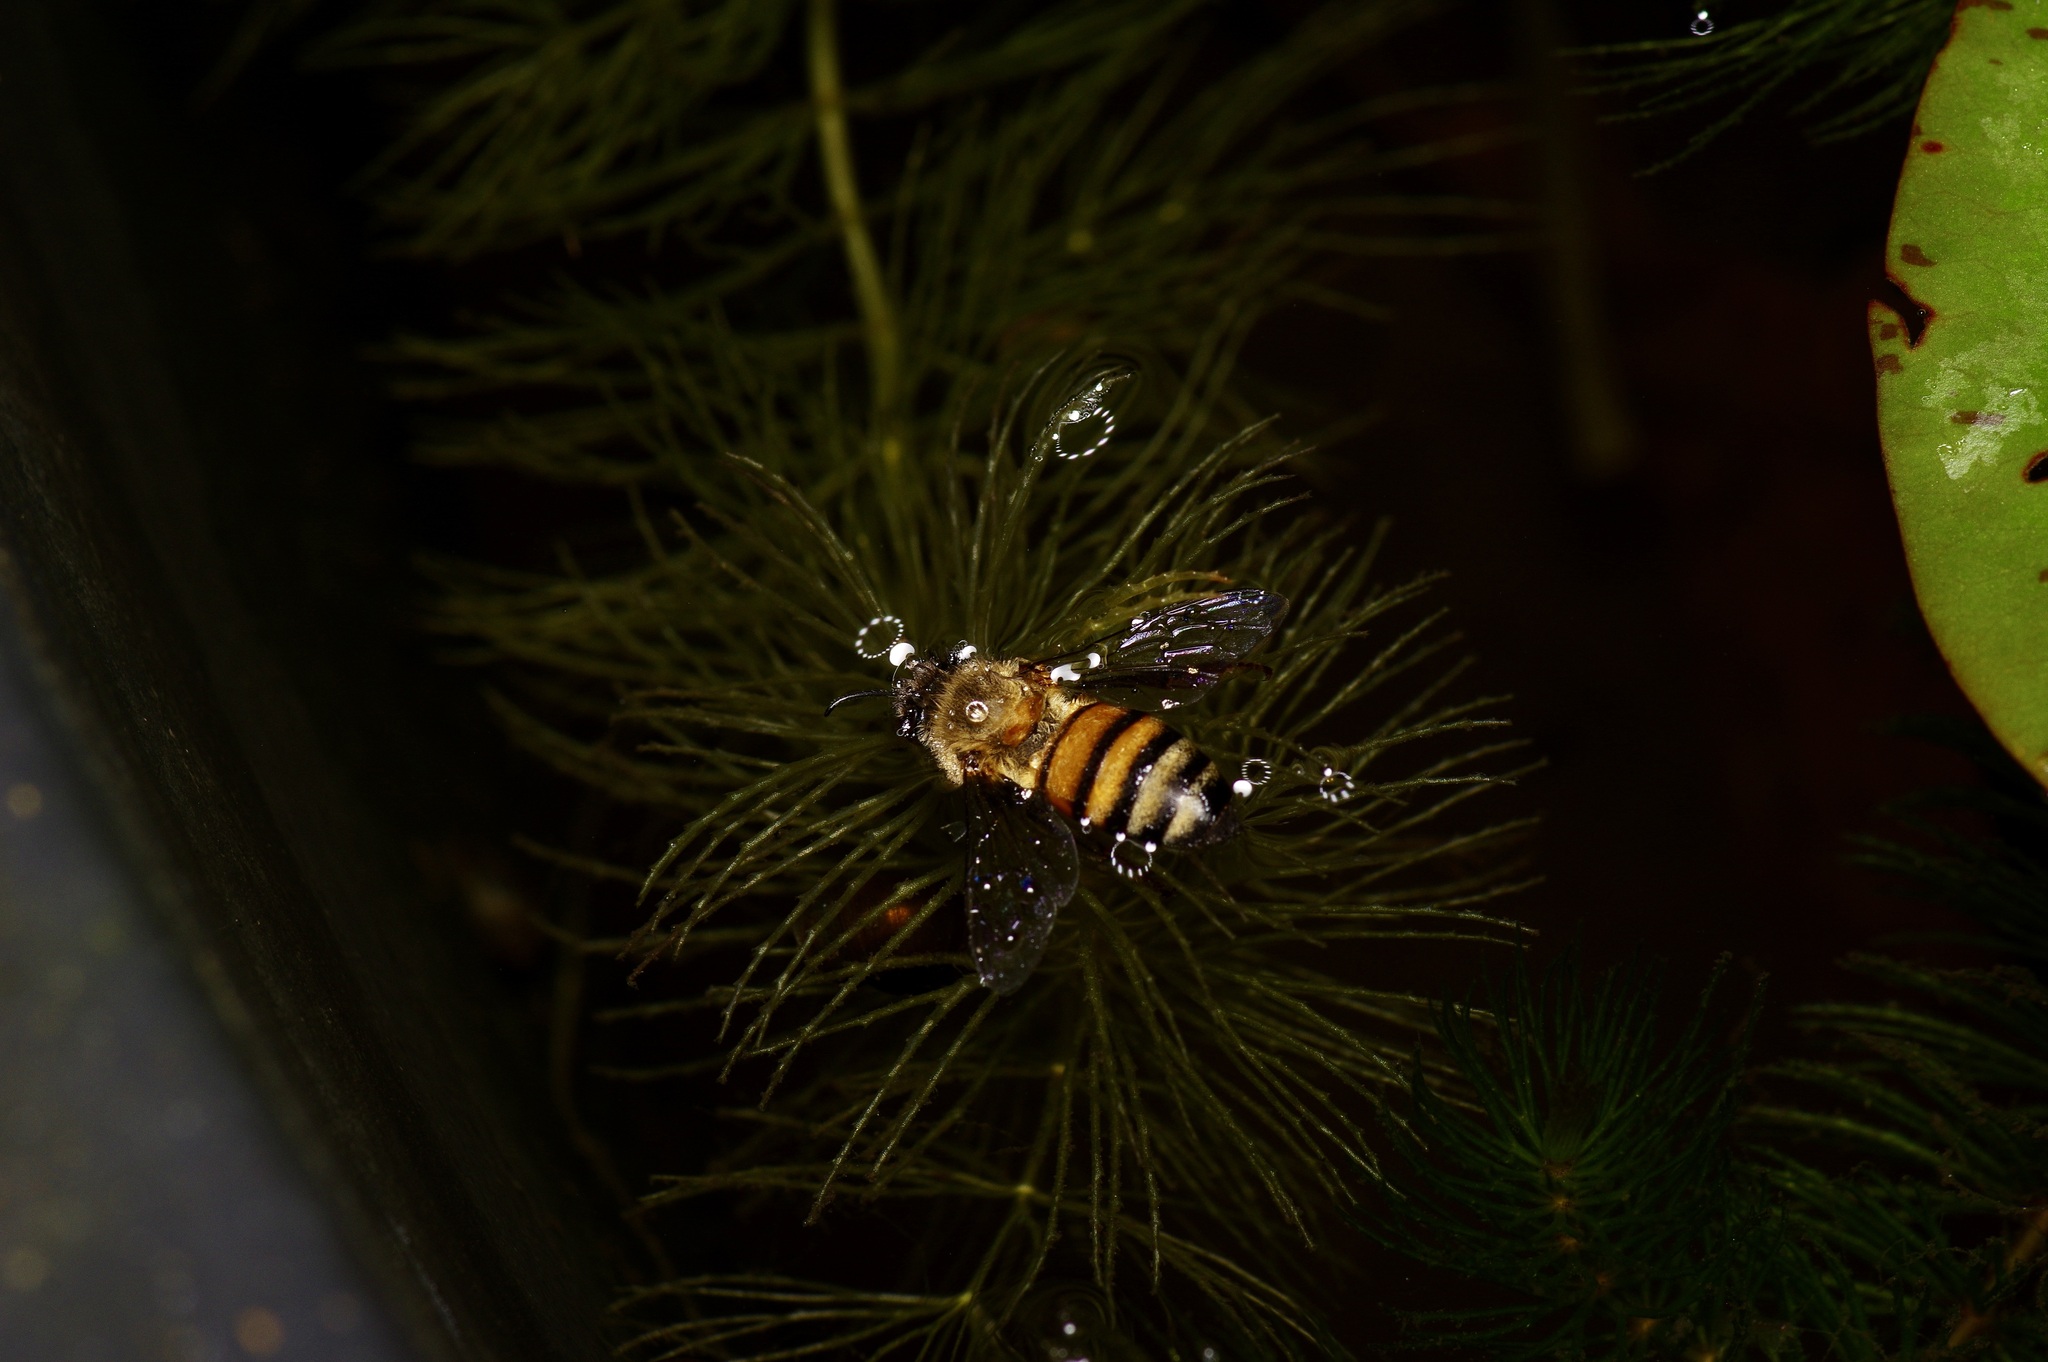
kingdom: Animalia
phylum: Arthropoda
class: Insecta
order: Hymenoptera
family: Apidae
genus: Apis
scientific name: Apis mellifera
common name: Honey bee
